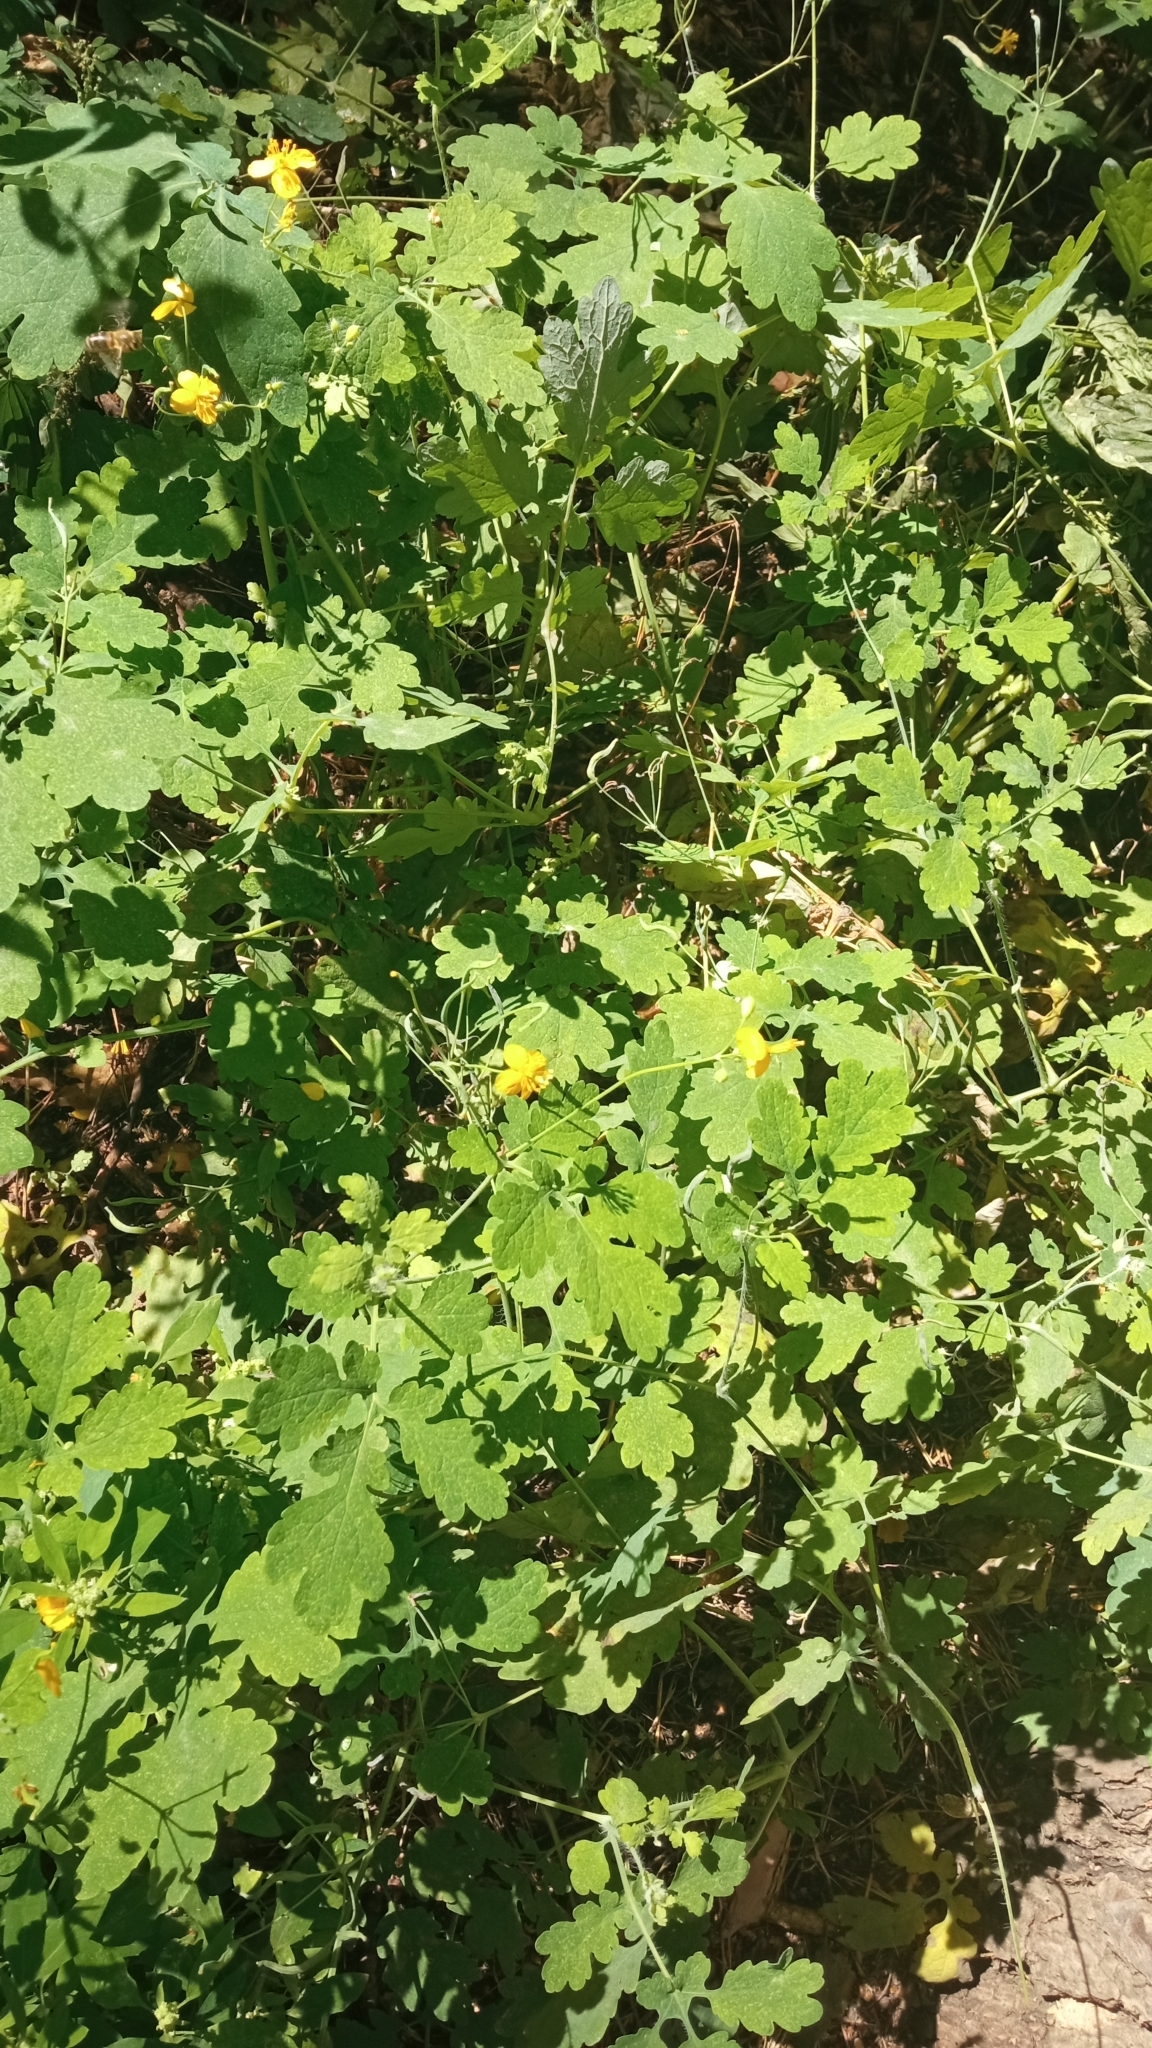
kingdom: Plantae
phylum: Tracheophyta
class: Magnoliopsida
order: Ranunculales
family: Papaveraceae
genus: Chelidonium
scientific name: Chelidonium majus
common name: Greater celandine
